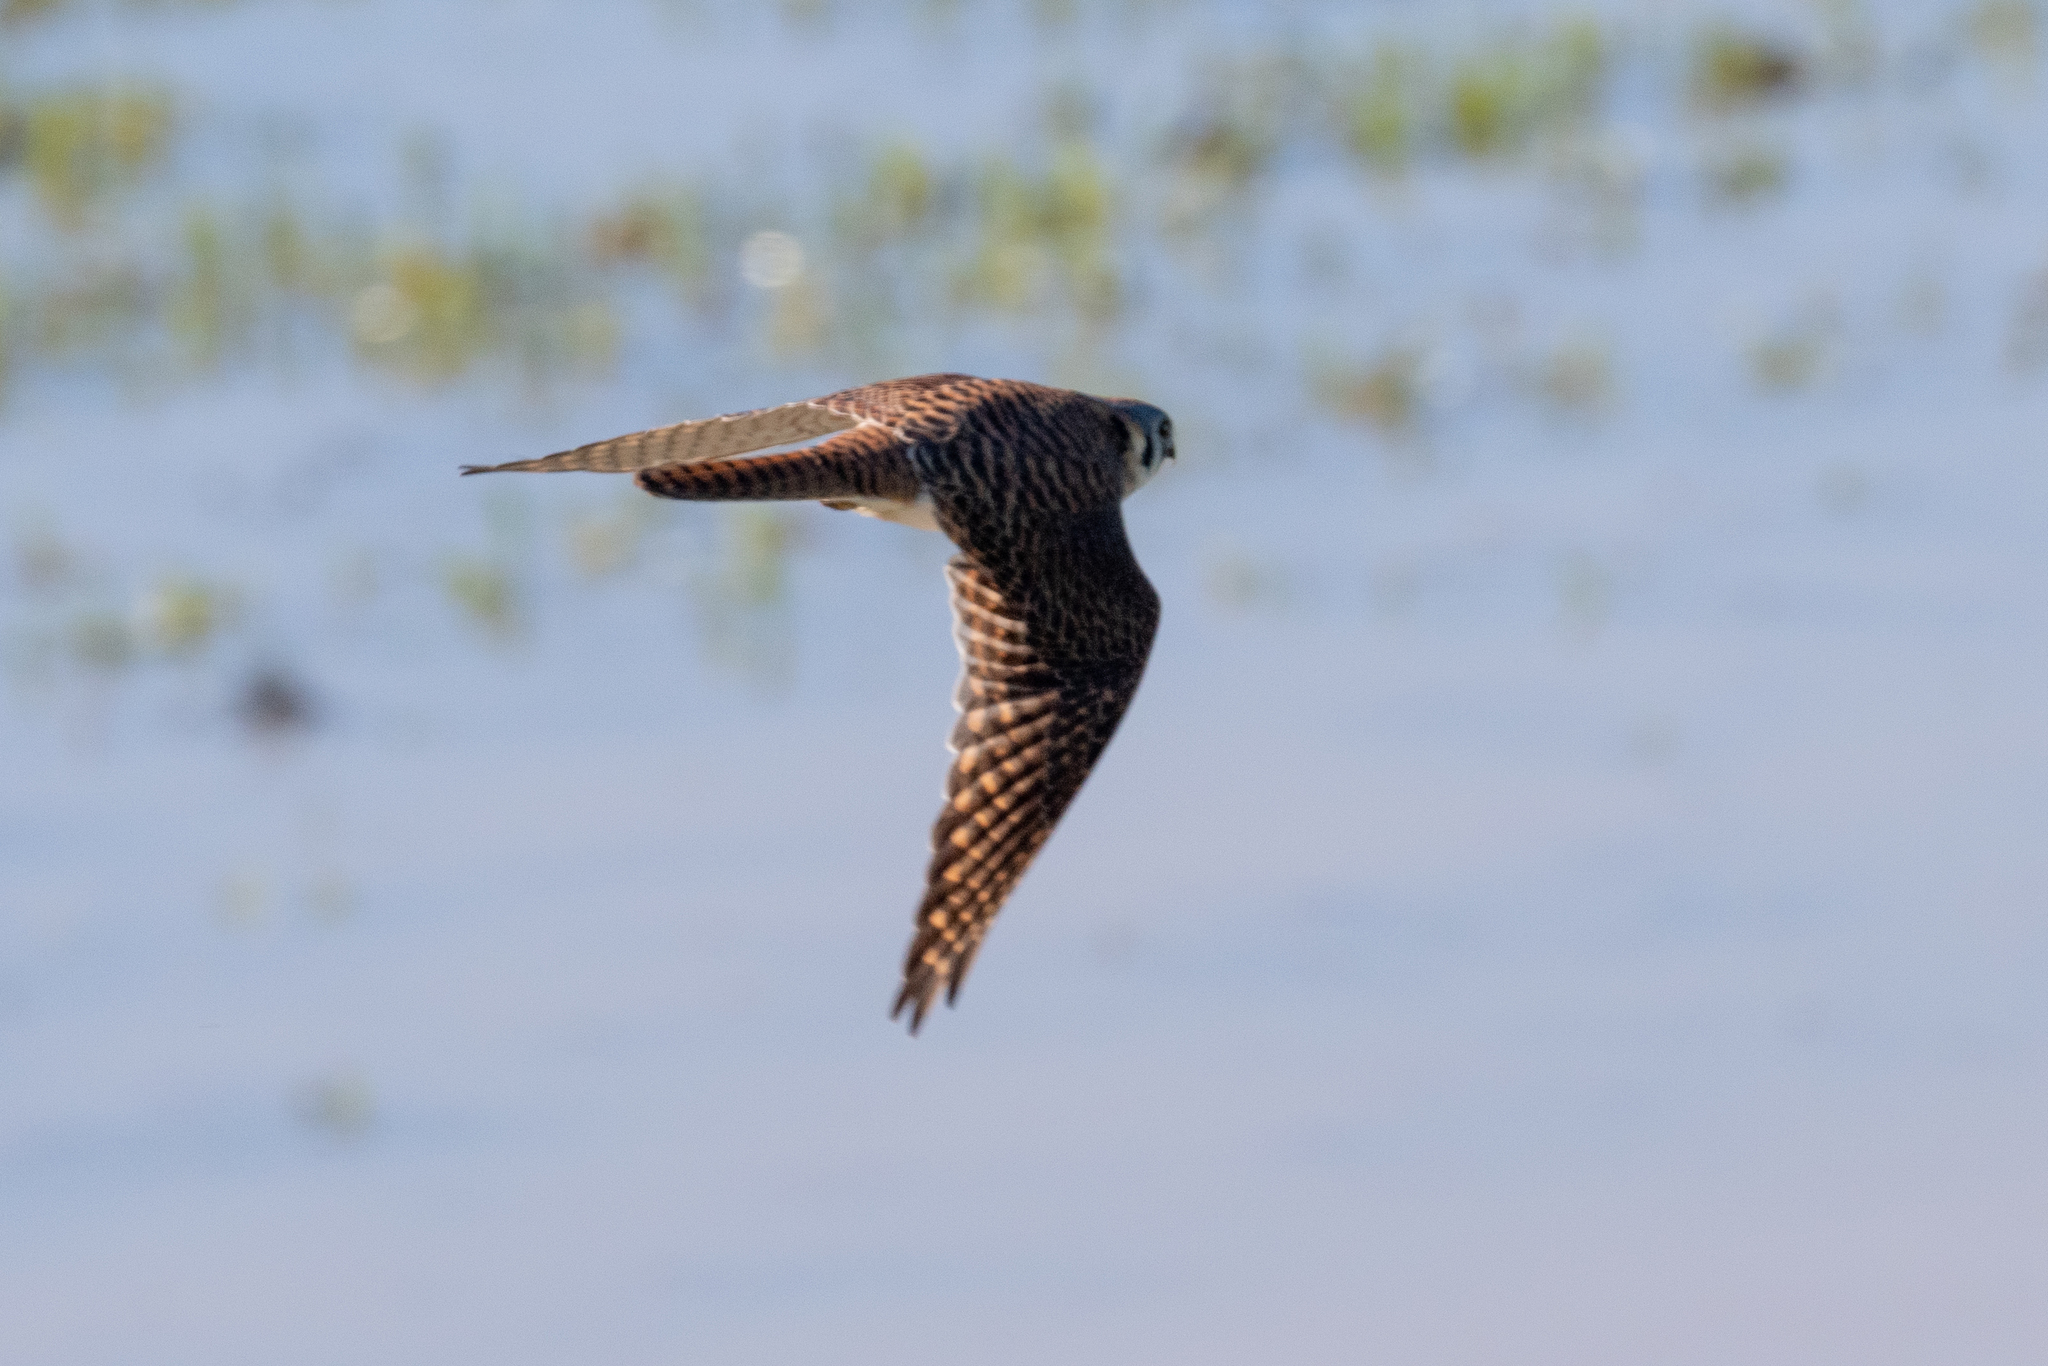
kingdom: Animalia
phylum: Chordata
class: Aves
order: Falconiformes
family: Falconidae
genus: Falco
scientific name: Falco sparverius
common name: American kestrel
